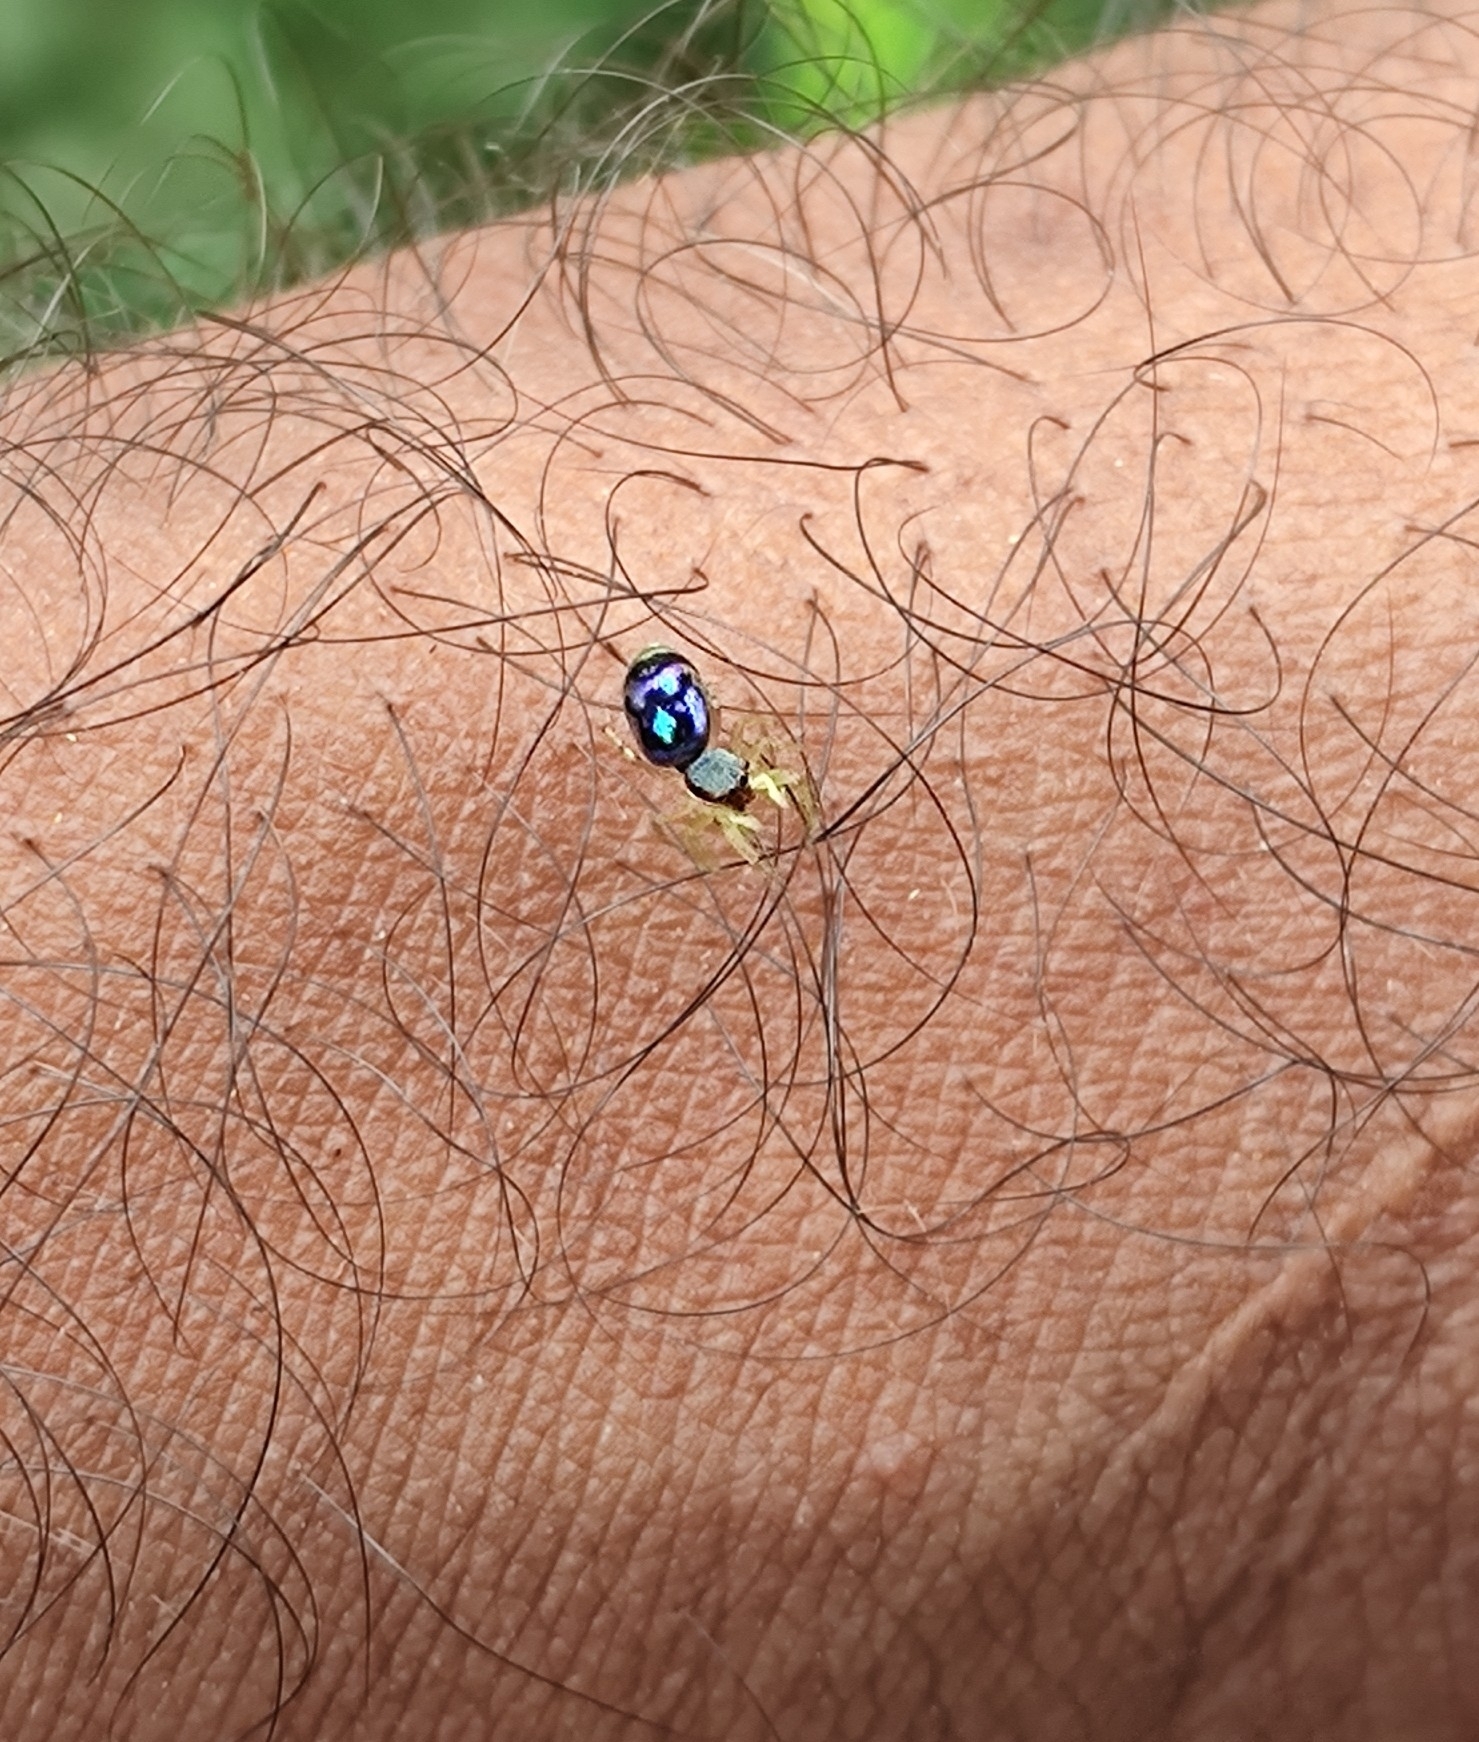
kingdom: Animalia
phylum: Arthropoda
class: Arachnida
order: Araneae
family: Salticidae
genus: Chrysilla
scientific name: Chrysilla volupe
